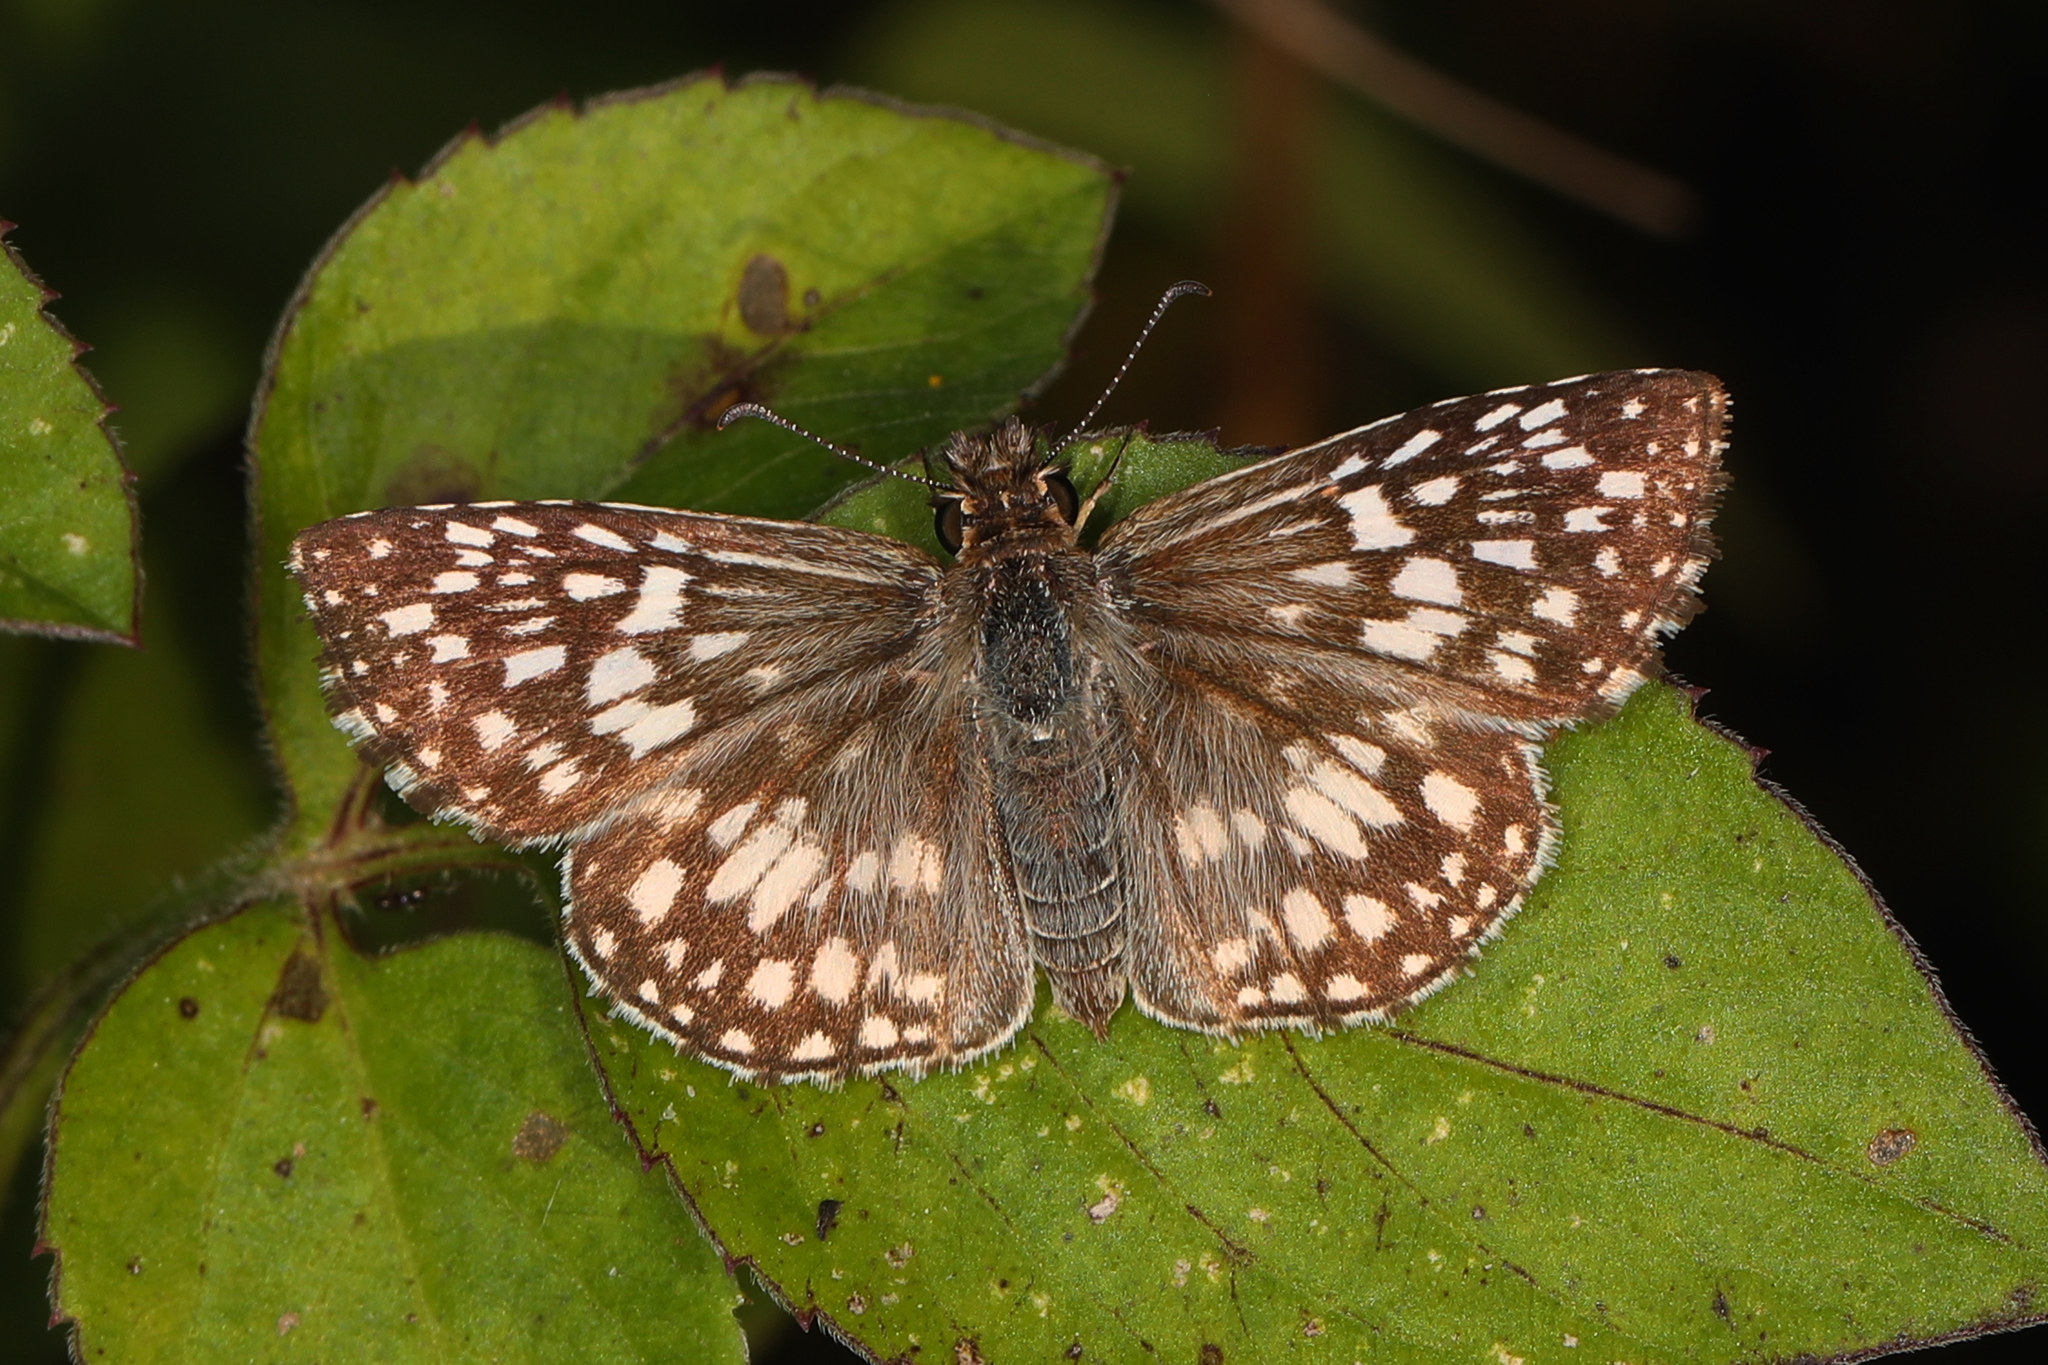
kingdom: Animalia
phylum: Arthropoda
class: Insecta
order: Lepidoptera
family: Hesperiidae
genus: Pyrgus
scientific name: Pyrgus oileus
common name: Tropical checkered-skipper
